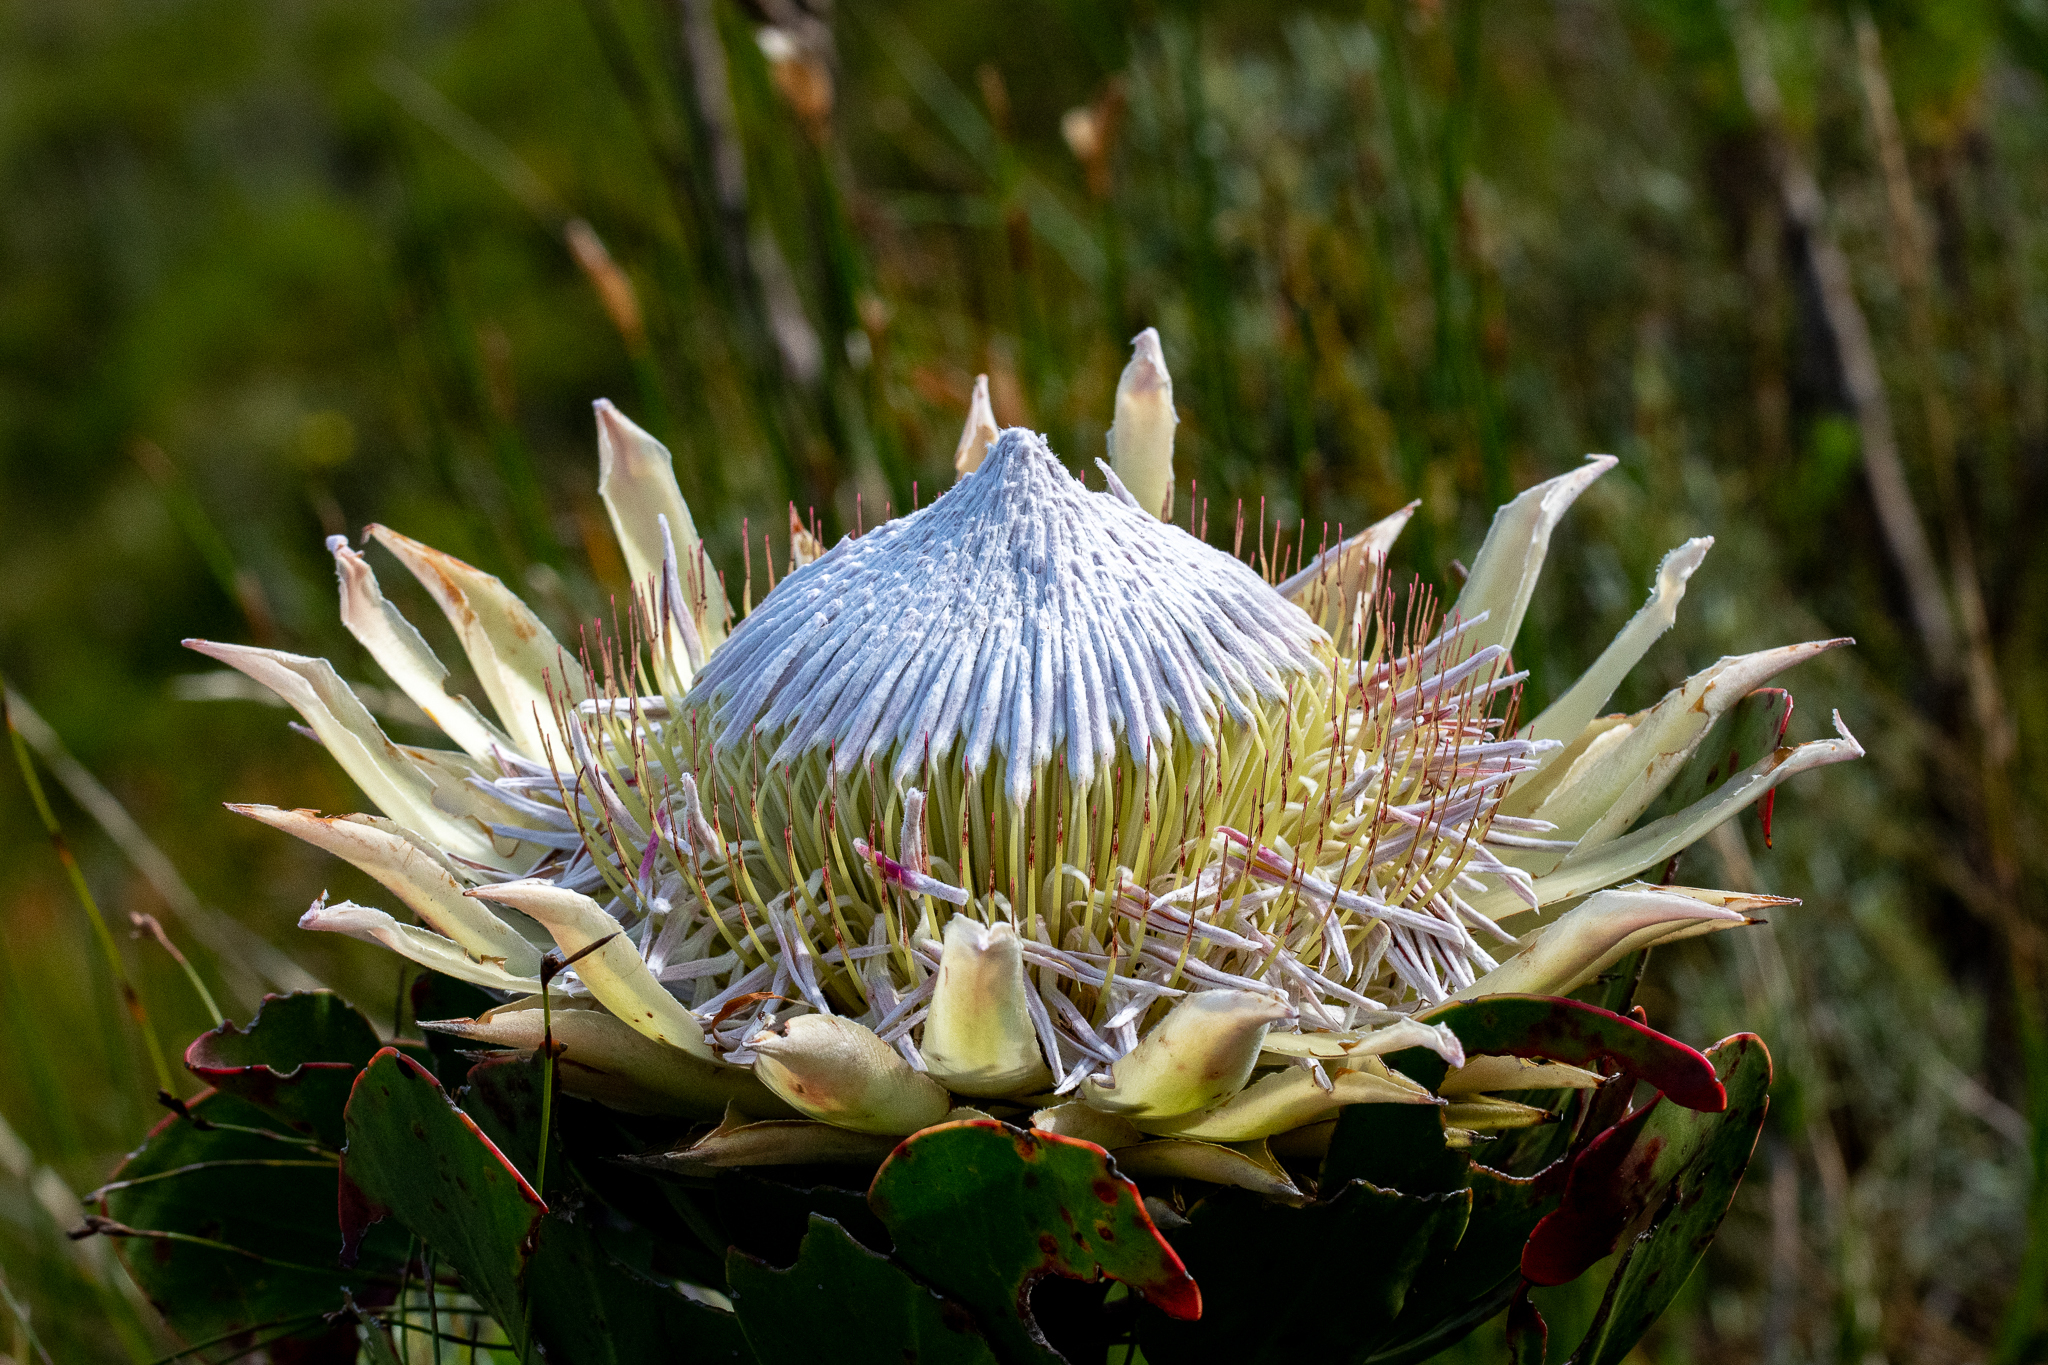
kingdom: Plantae
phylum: Tracheophyta
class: Magnoliopsida
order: Proteales
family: Proteaceae
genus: Protea
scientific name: Protea cynaroides
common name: King protea
